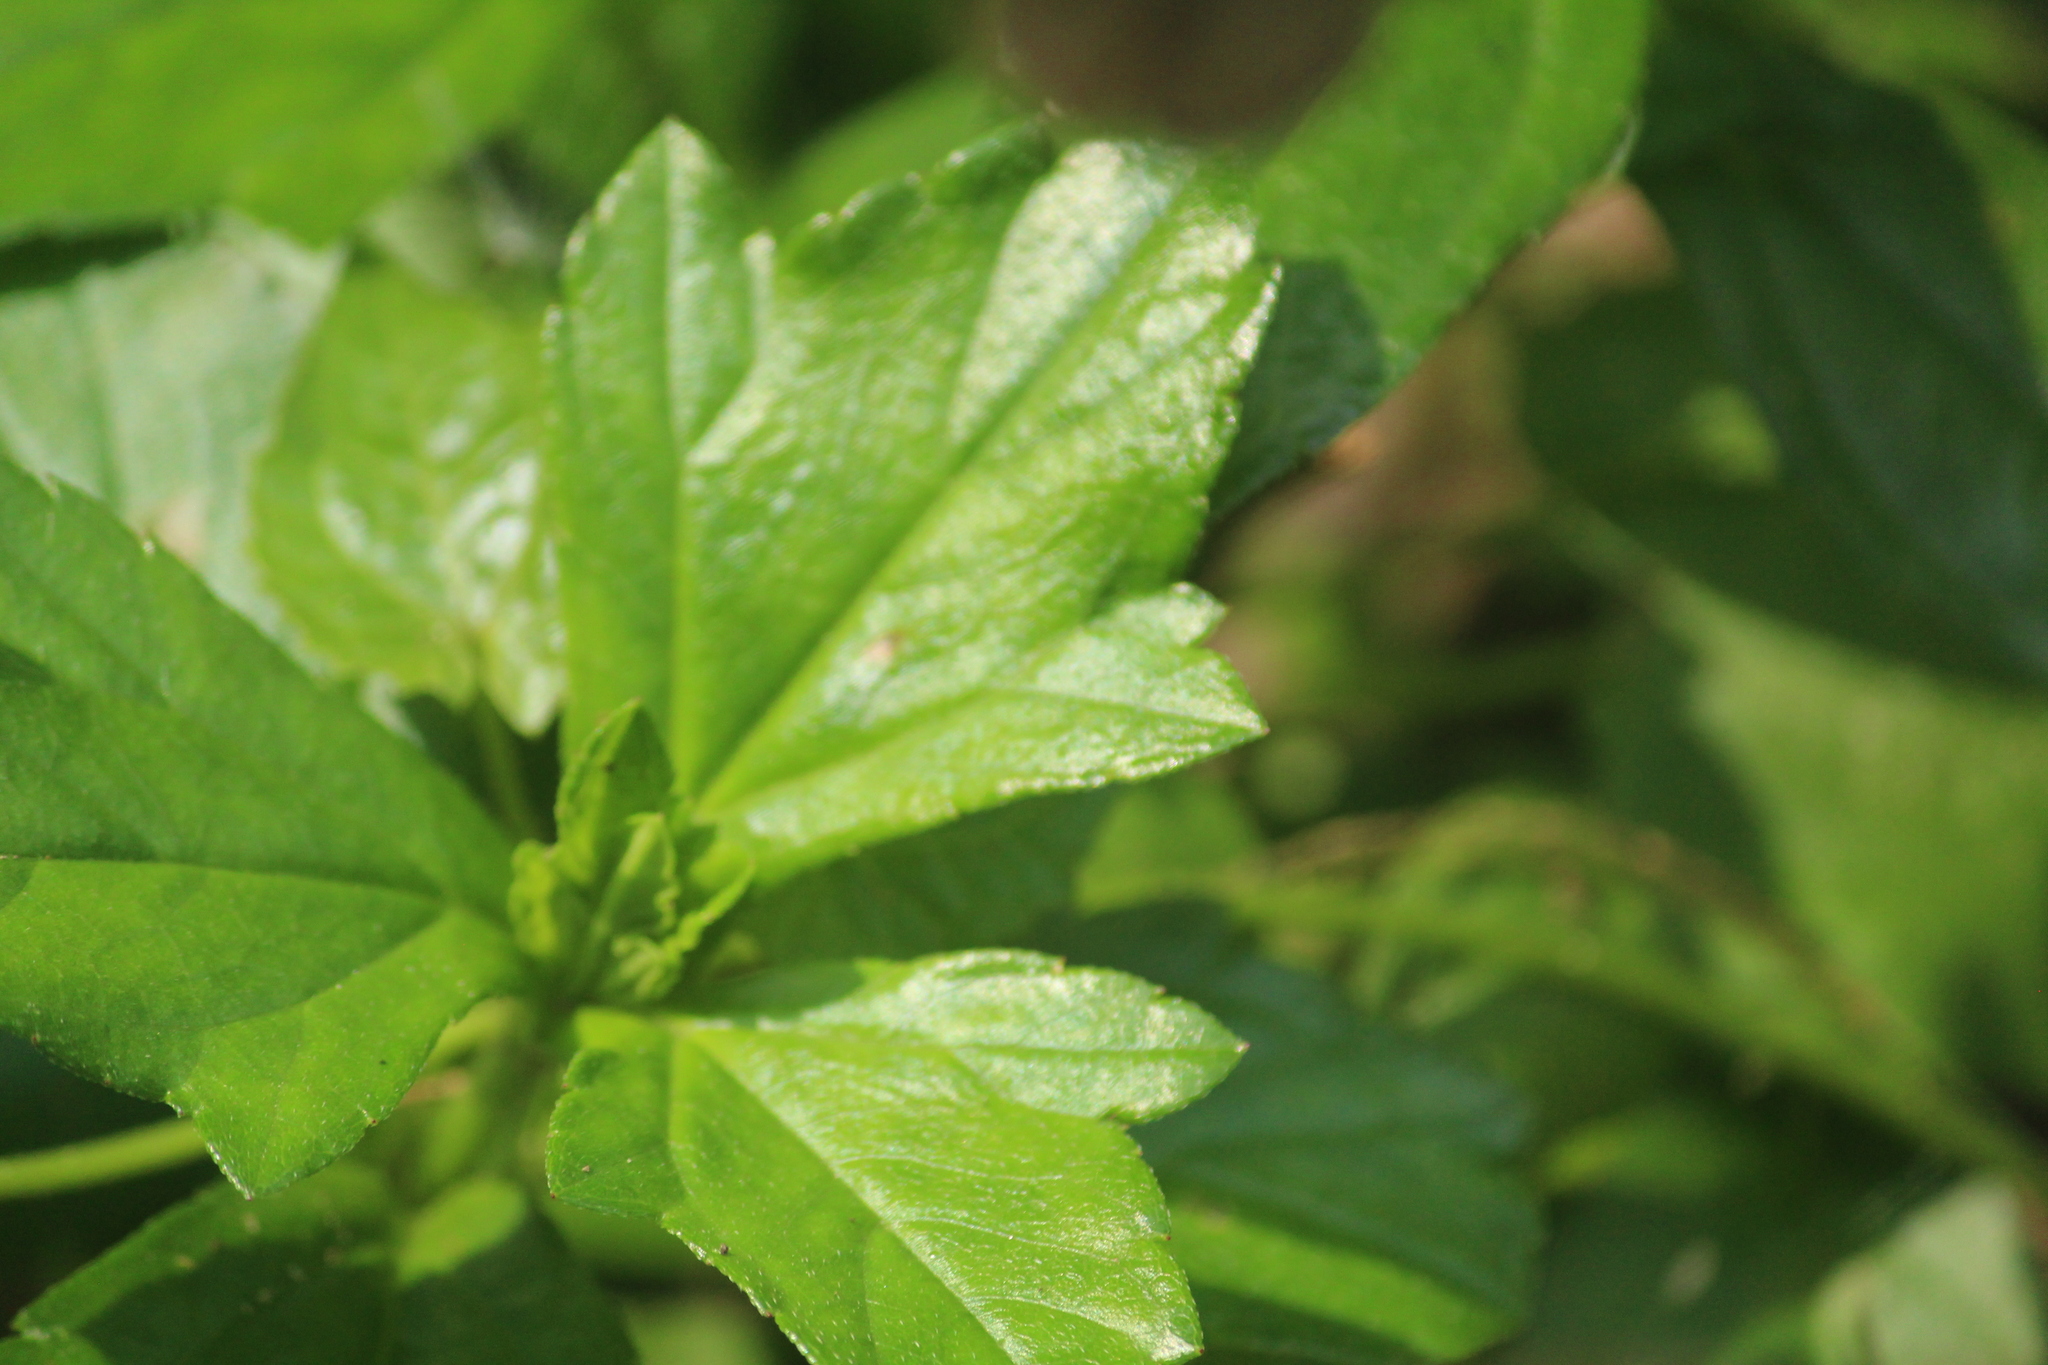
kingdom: Plantae
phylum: Tracheophyta
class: Magnoliopsida
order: Asterales
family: Asteraceae
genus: Sphagneticola
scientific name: Sphagneticola trilobata
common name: Bay biscayne creeping-oxeye
